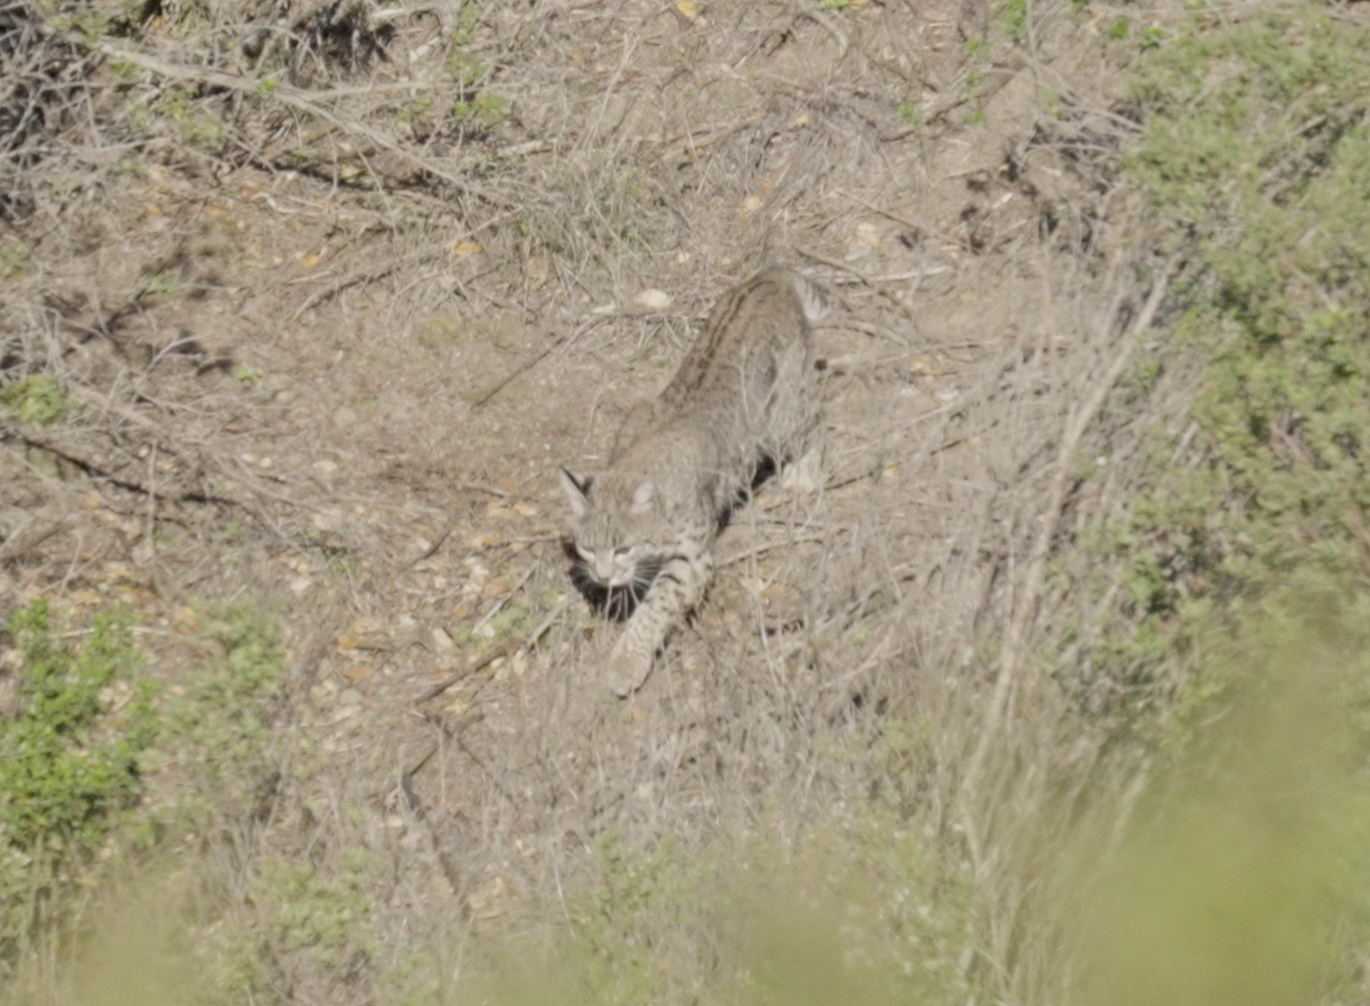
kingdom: Animalia
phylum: Chordata
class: Mammalia
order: Carnivora
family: Felidae
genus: Lynx
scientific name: Lynx rufus
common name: Bobcat
